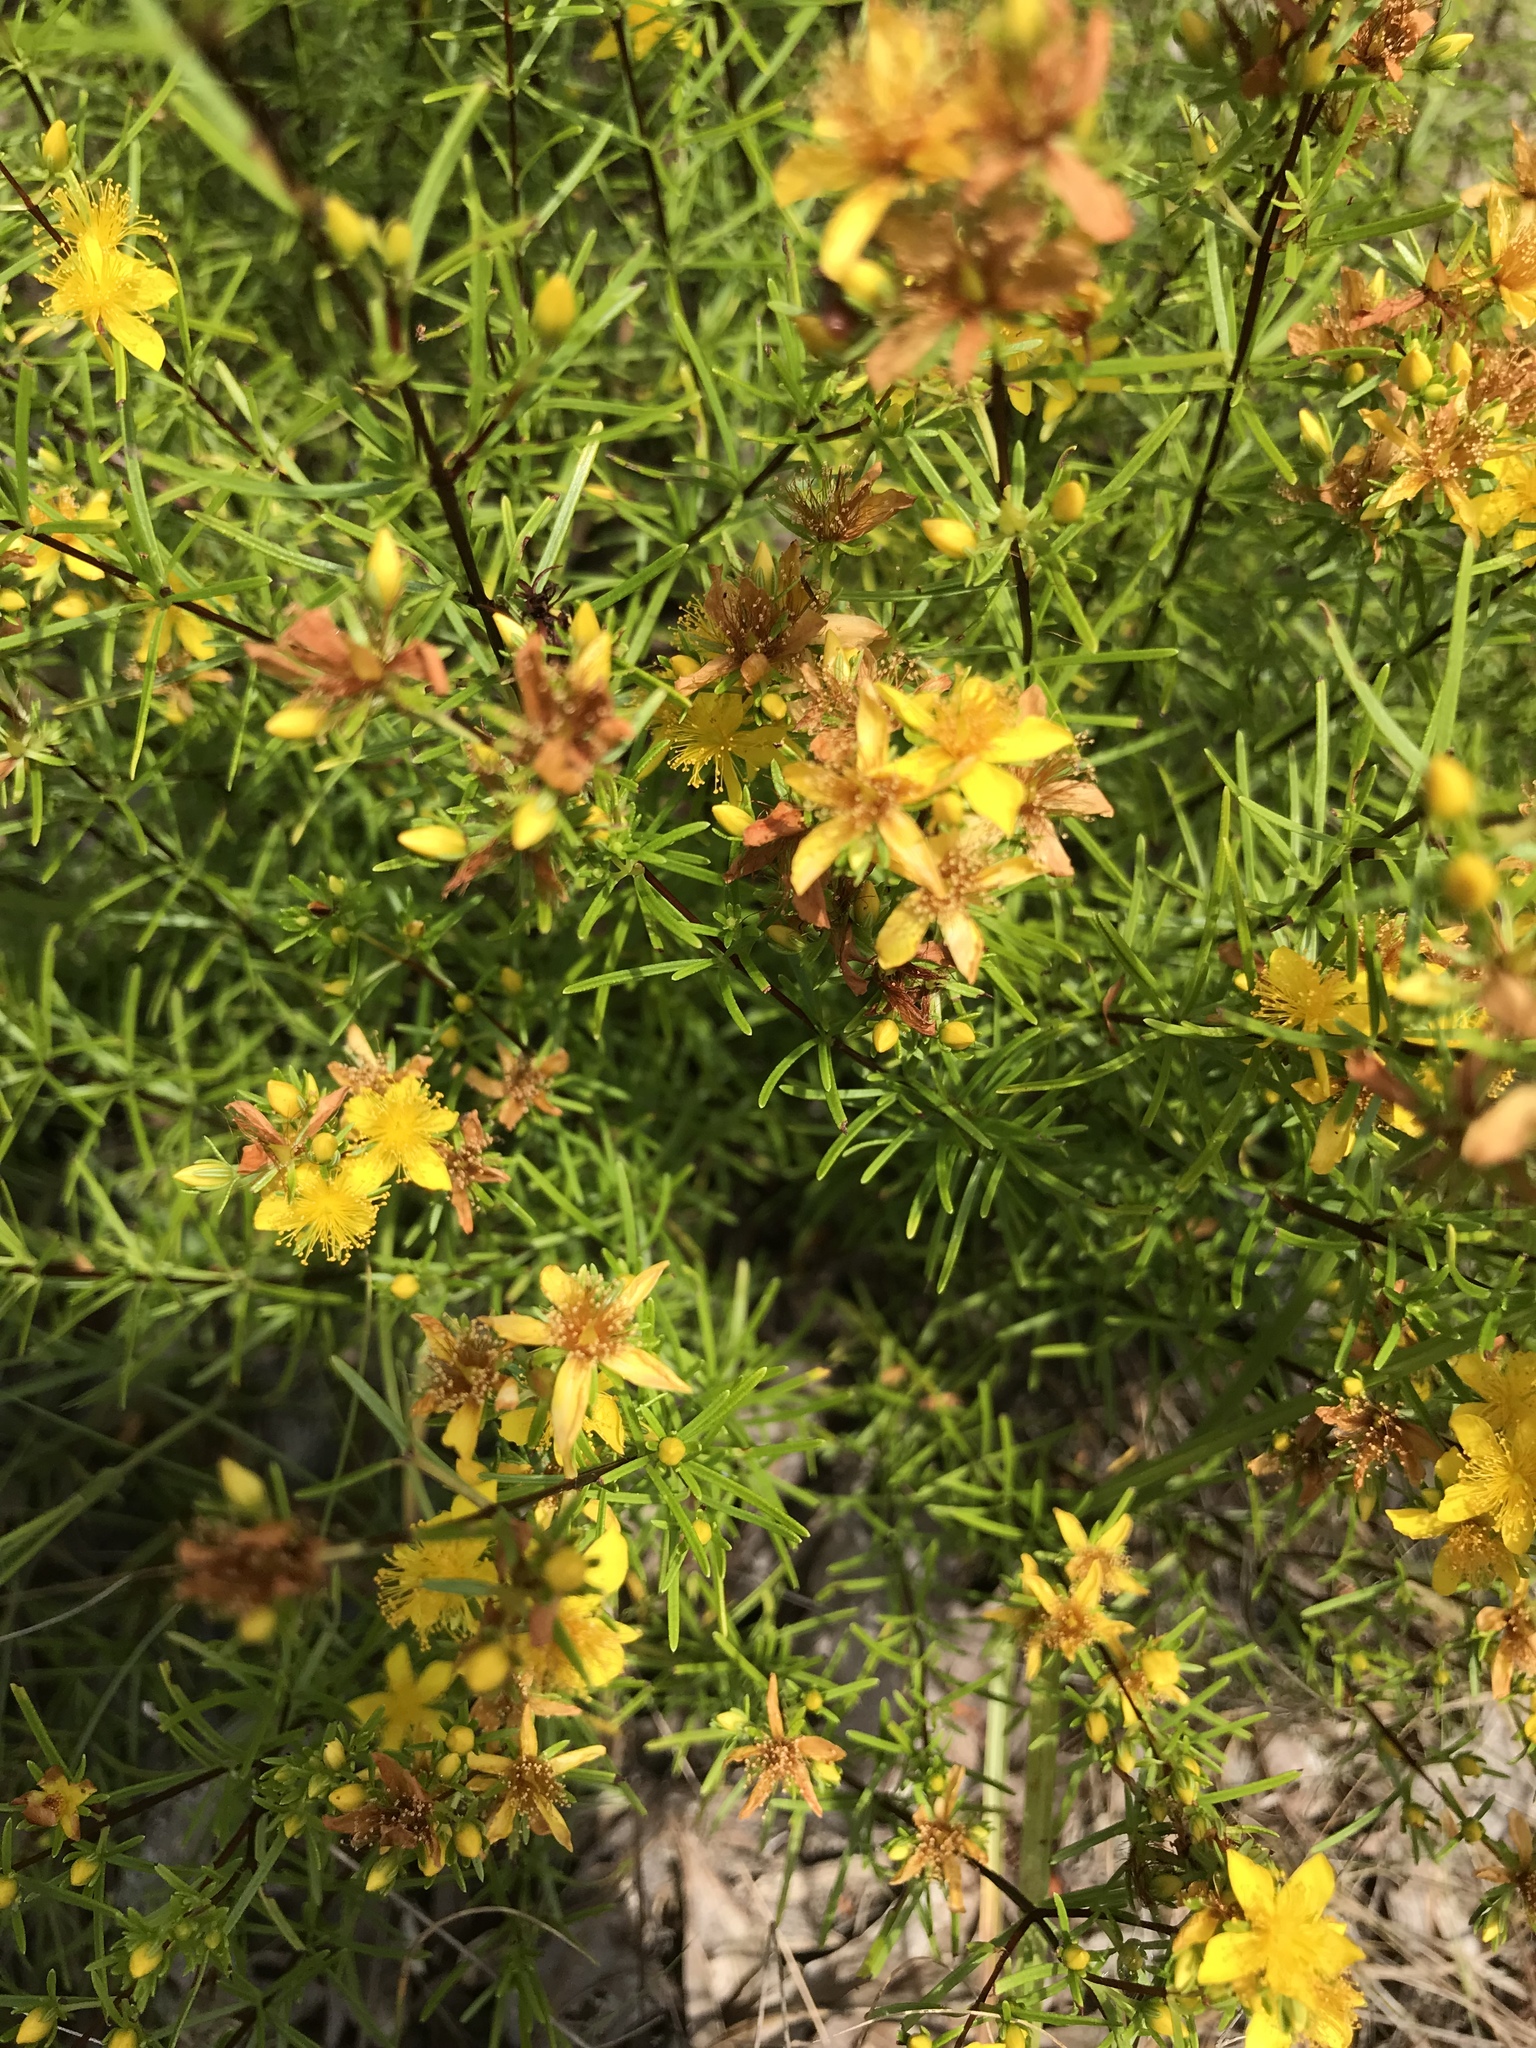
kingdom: Plantae
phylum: Tracheophyta
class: Magnoliopsida
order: Malpighiales
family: Hypericaceae
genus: Hypericum
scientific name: Hypericum lloydii
